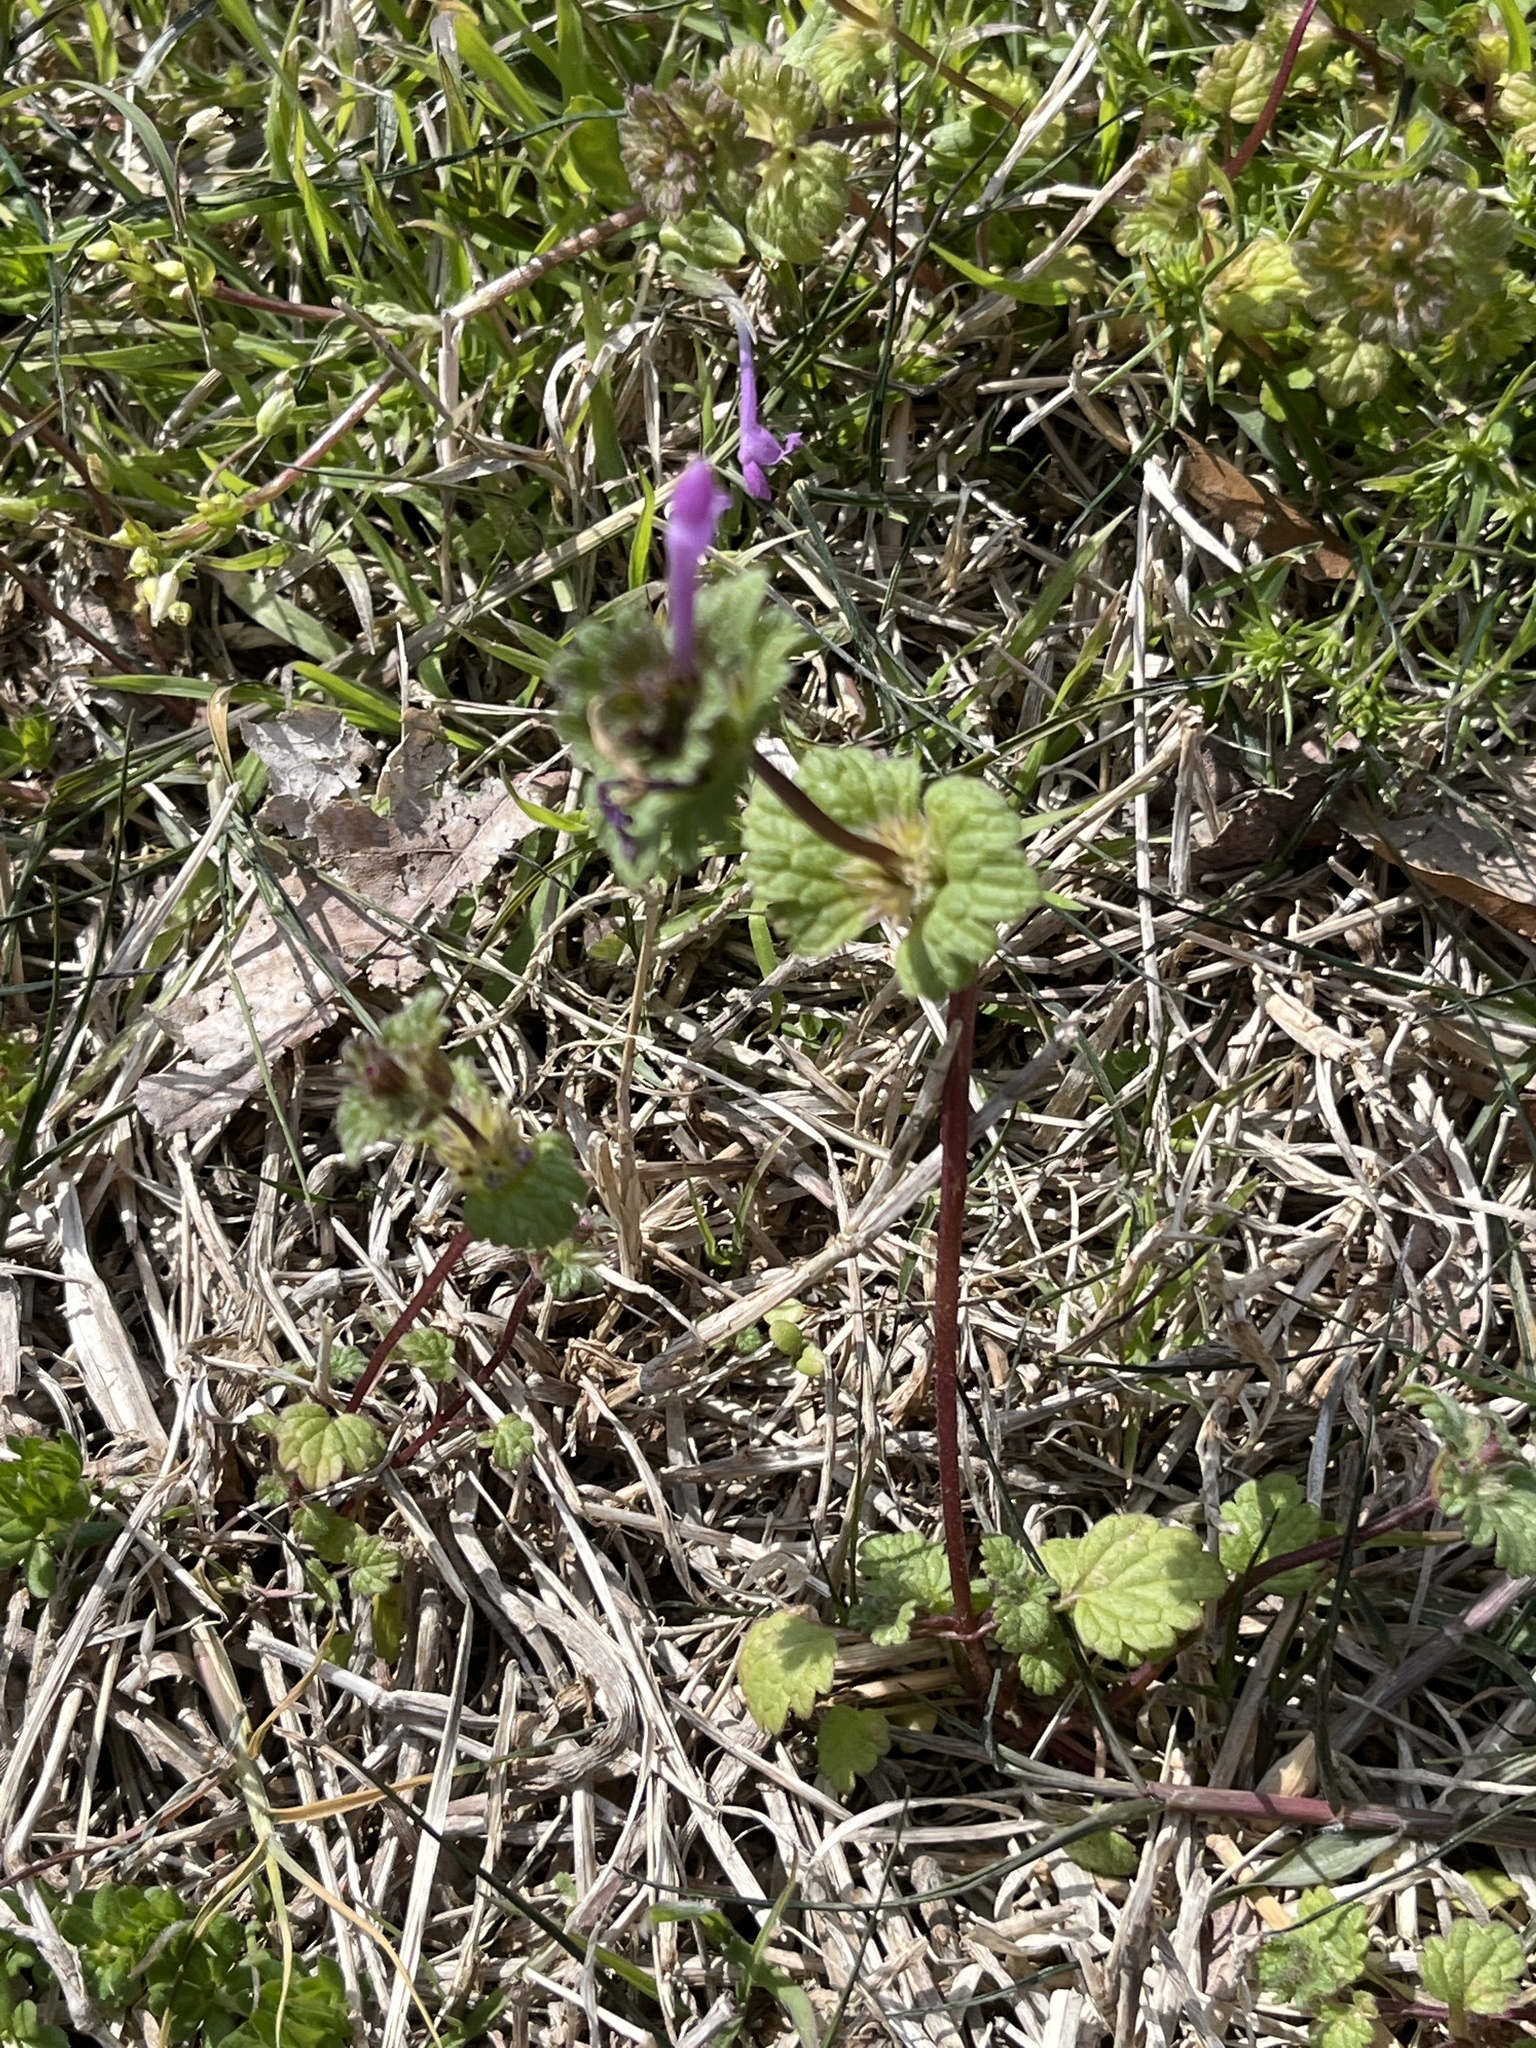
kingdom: Plantae
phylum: Tracheophyta
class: Magnoliopsida
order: Lamiales
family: Lamiaceae
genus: Lamium
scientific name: Lamium amplexicaule
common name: Henbit dead-nettle
